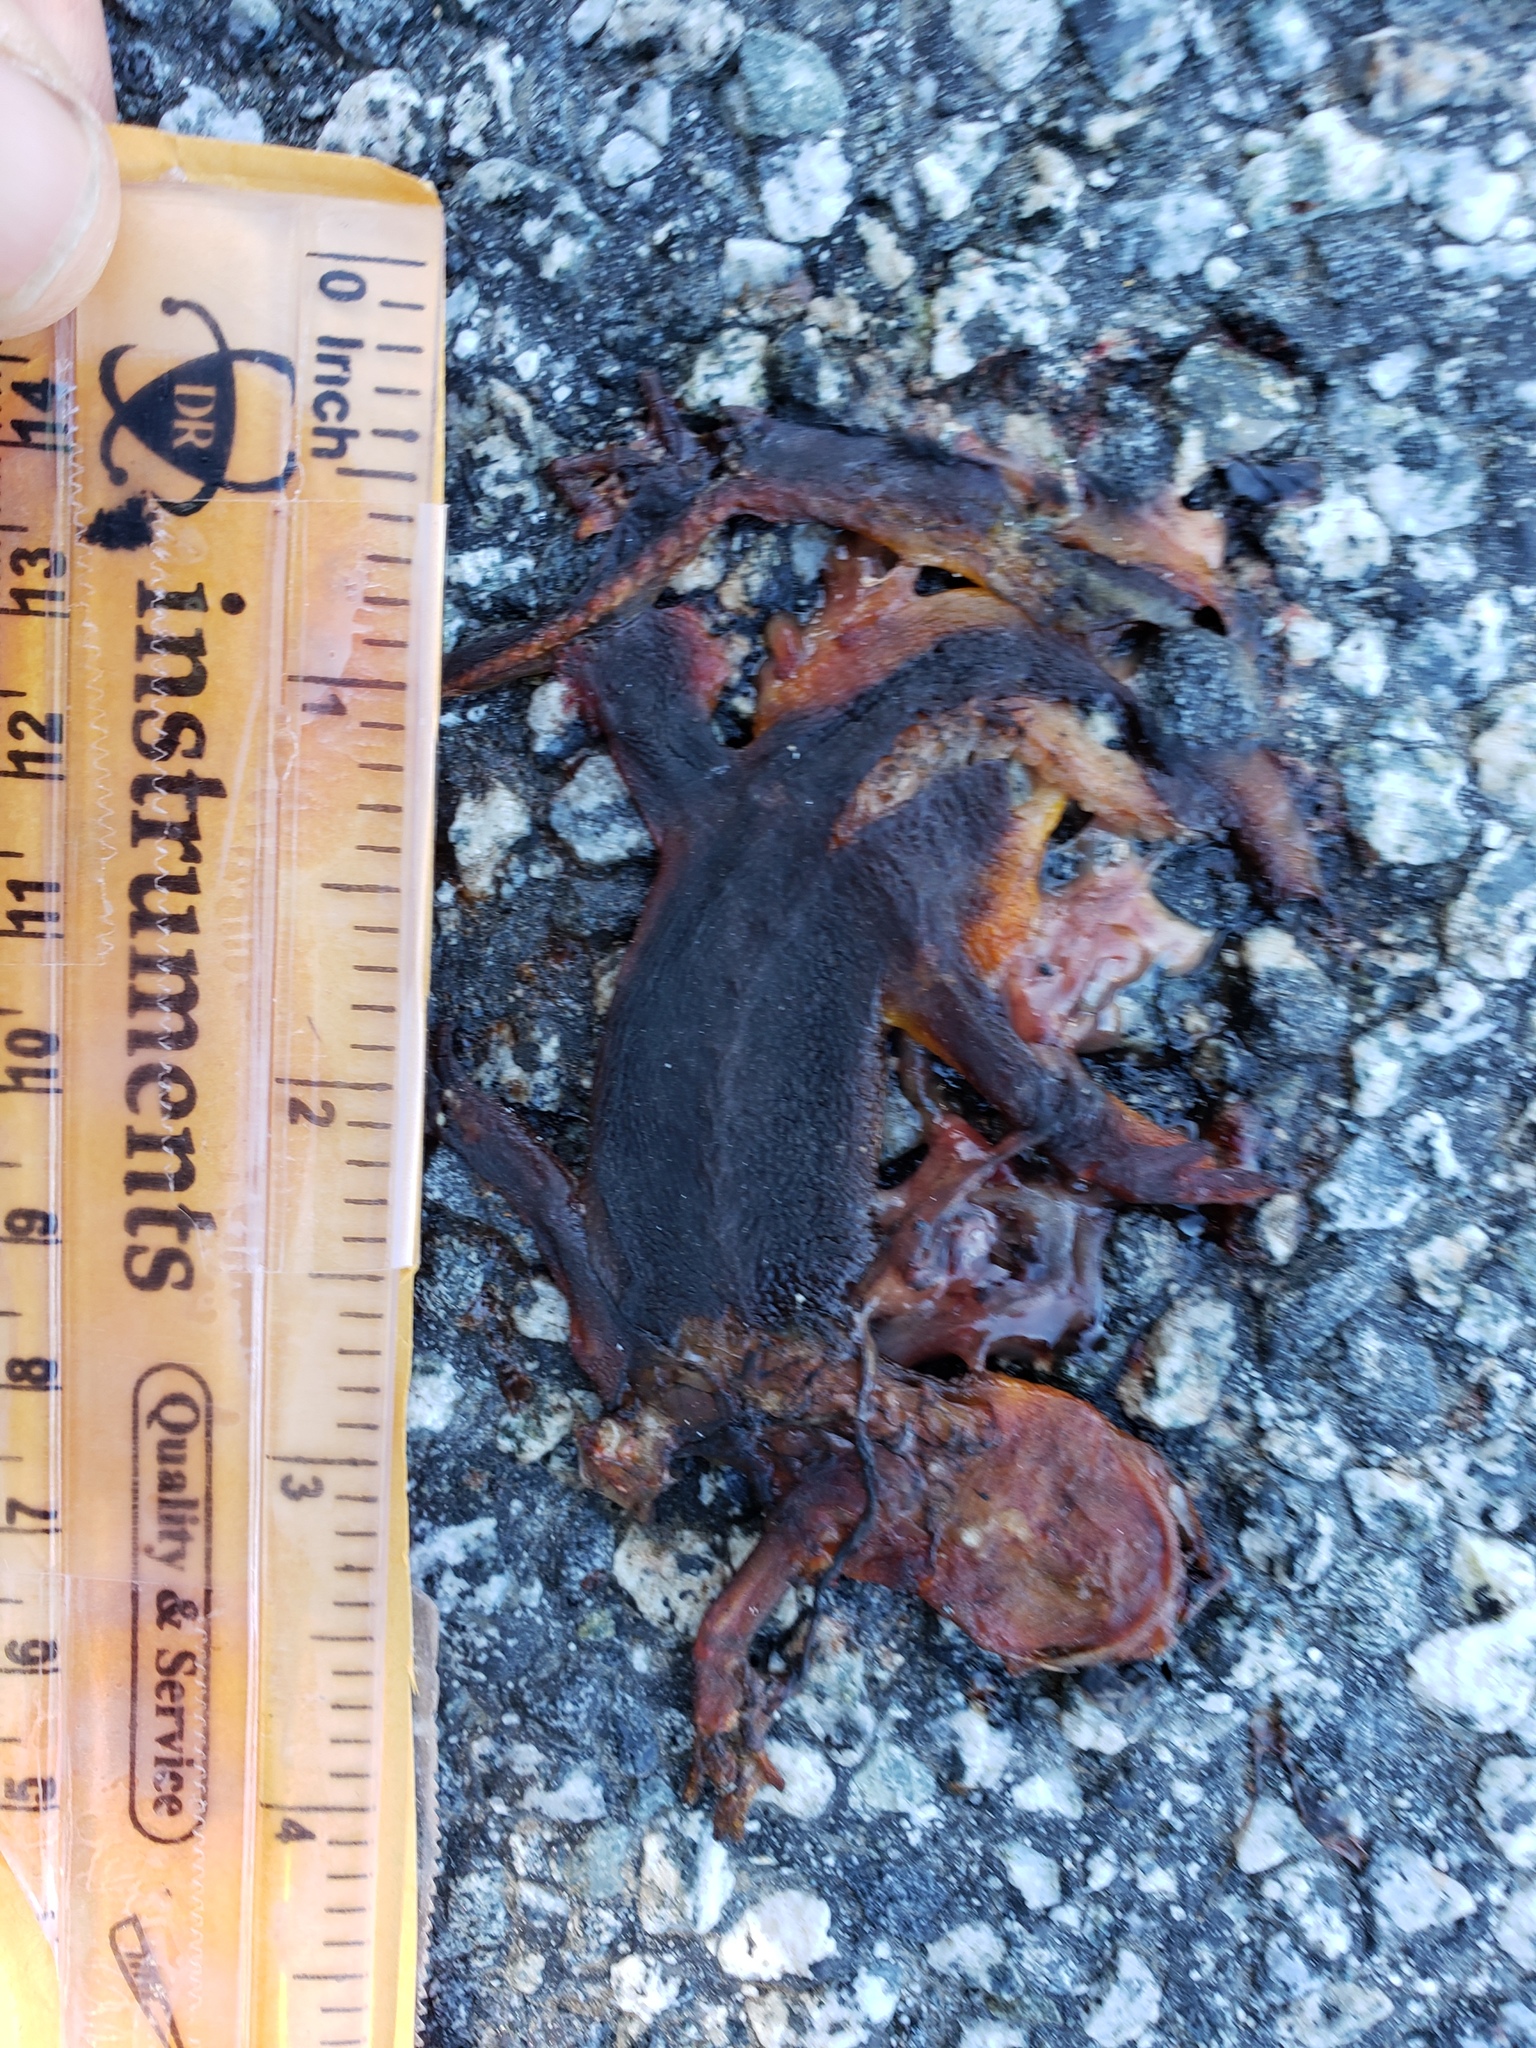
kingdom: Animalia
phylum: Chordata
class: Amphibia
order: Caudata
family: Salamandridae
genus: Taricha
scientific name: Taricha
